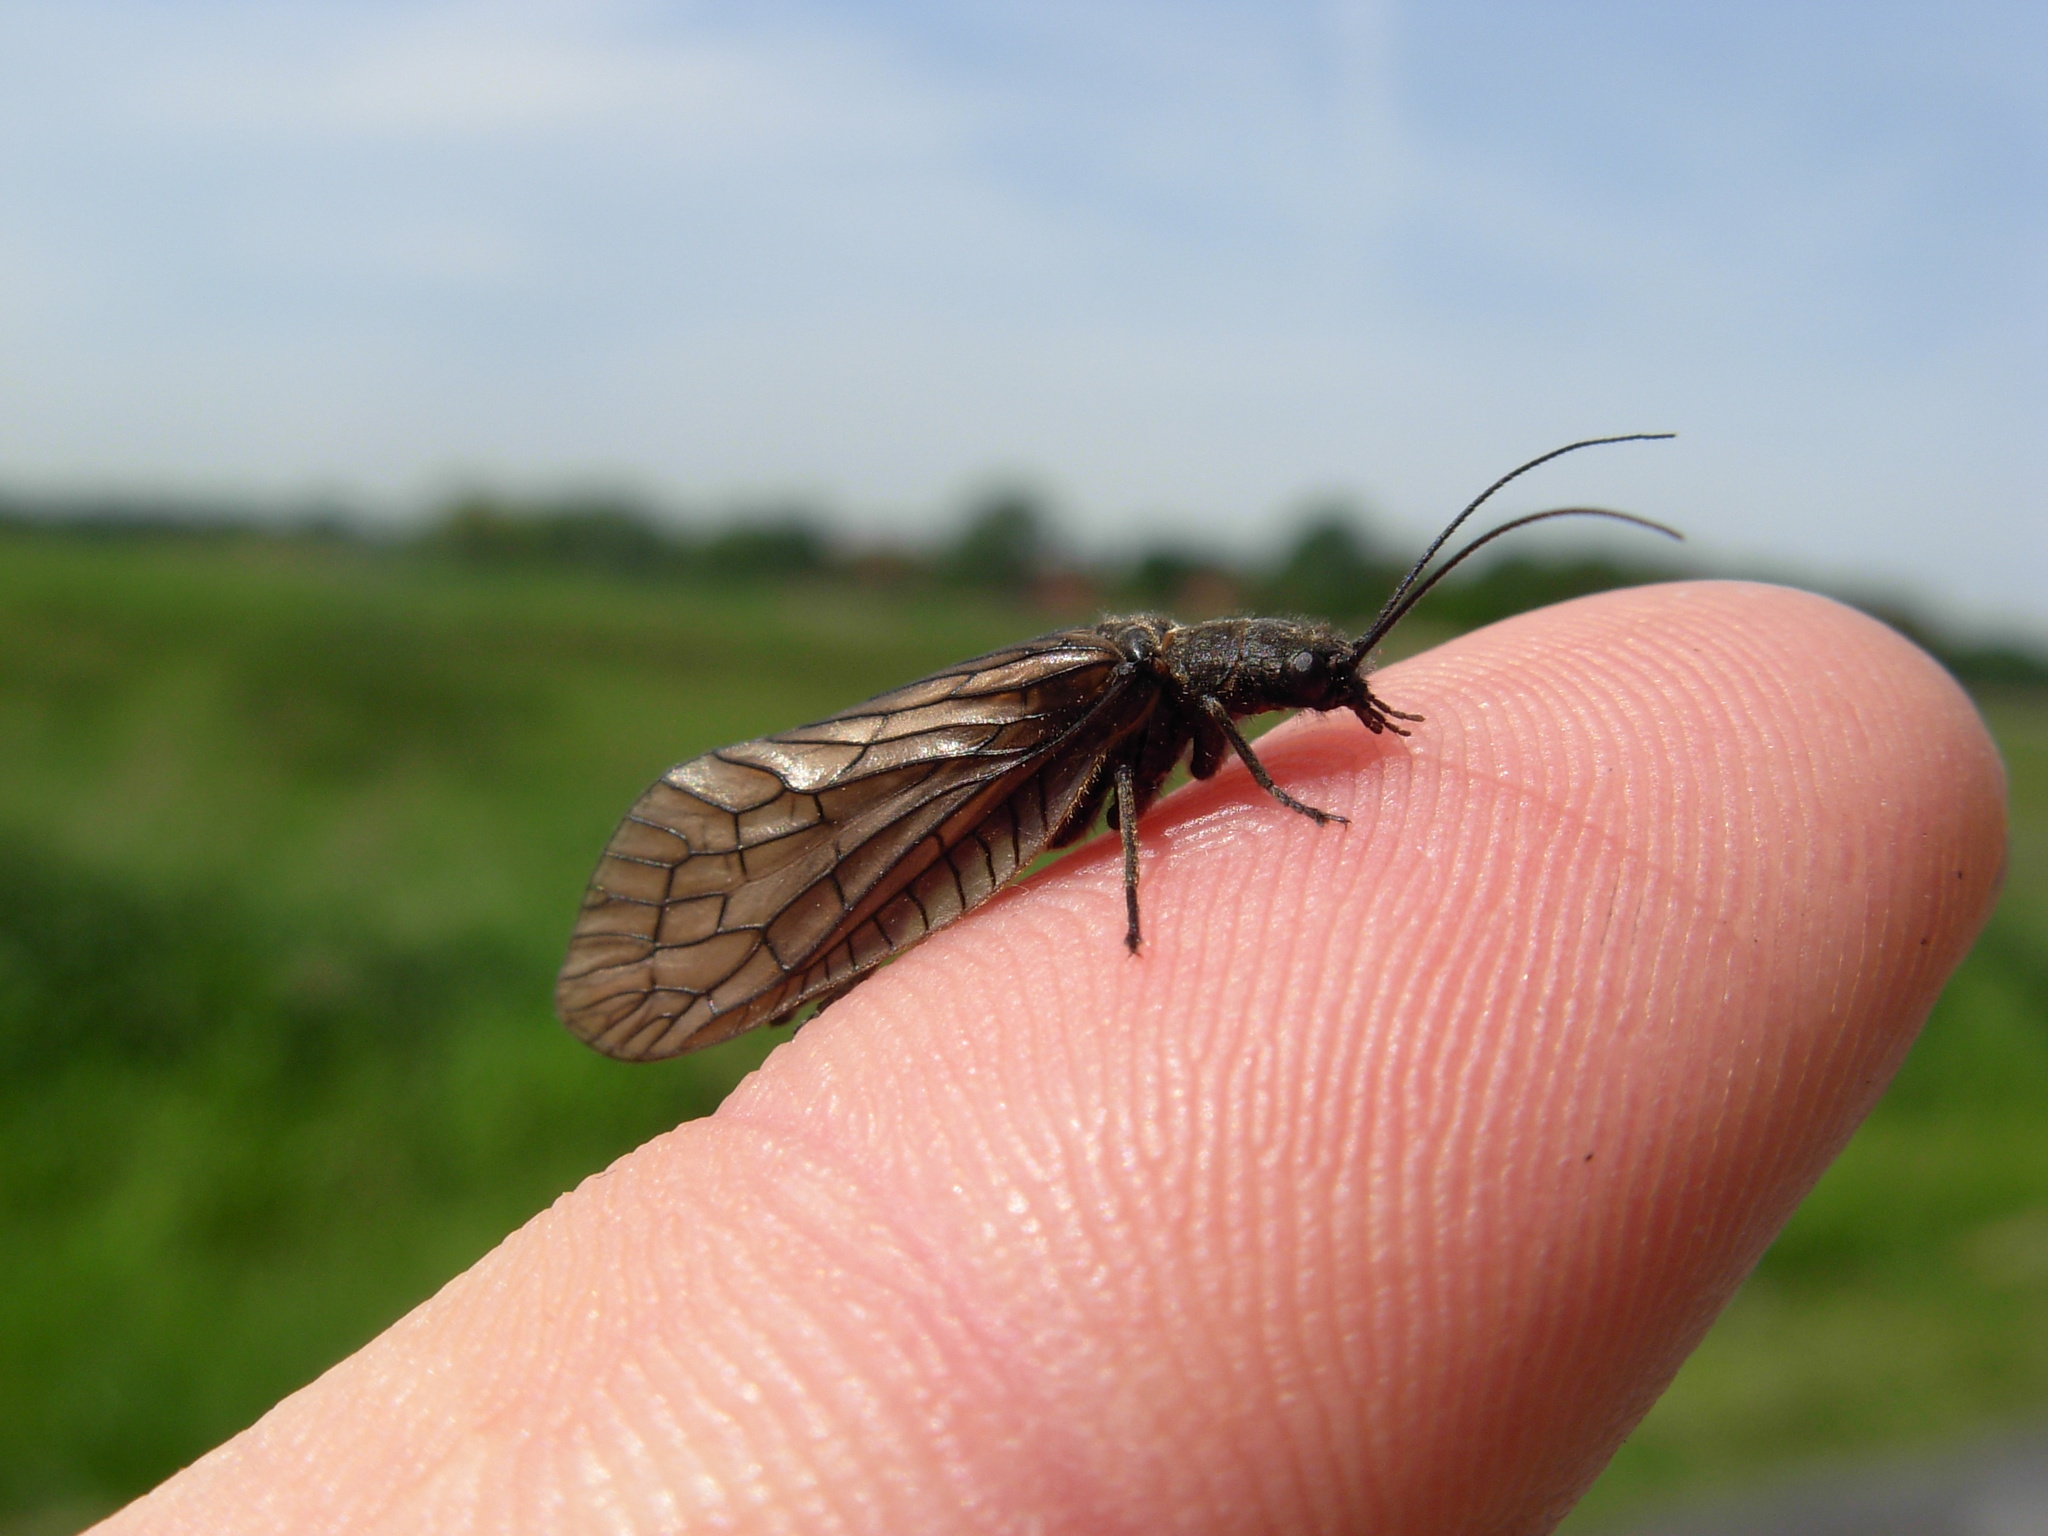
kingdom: Animalia
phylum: Arthropoda
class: Insecta
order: Megaloptera
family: Sialidae
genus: Sialis
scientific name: Sialis
